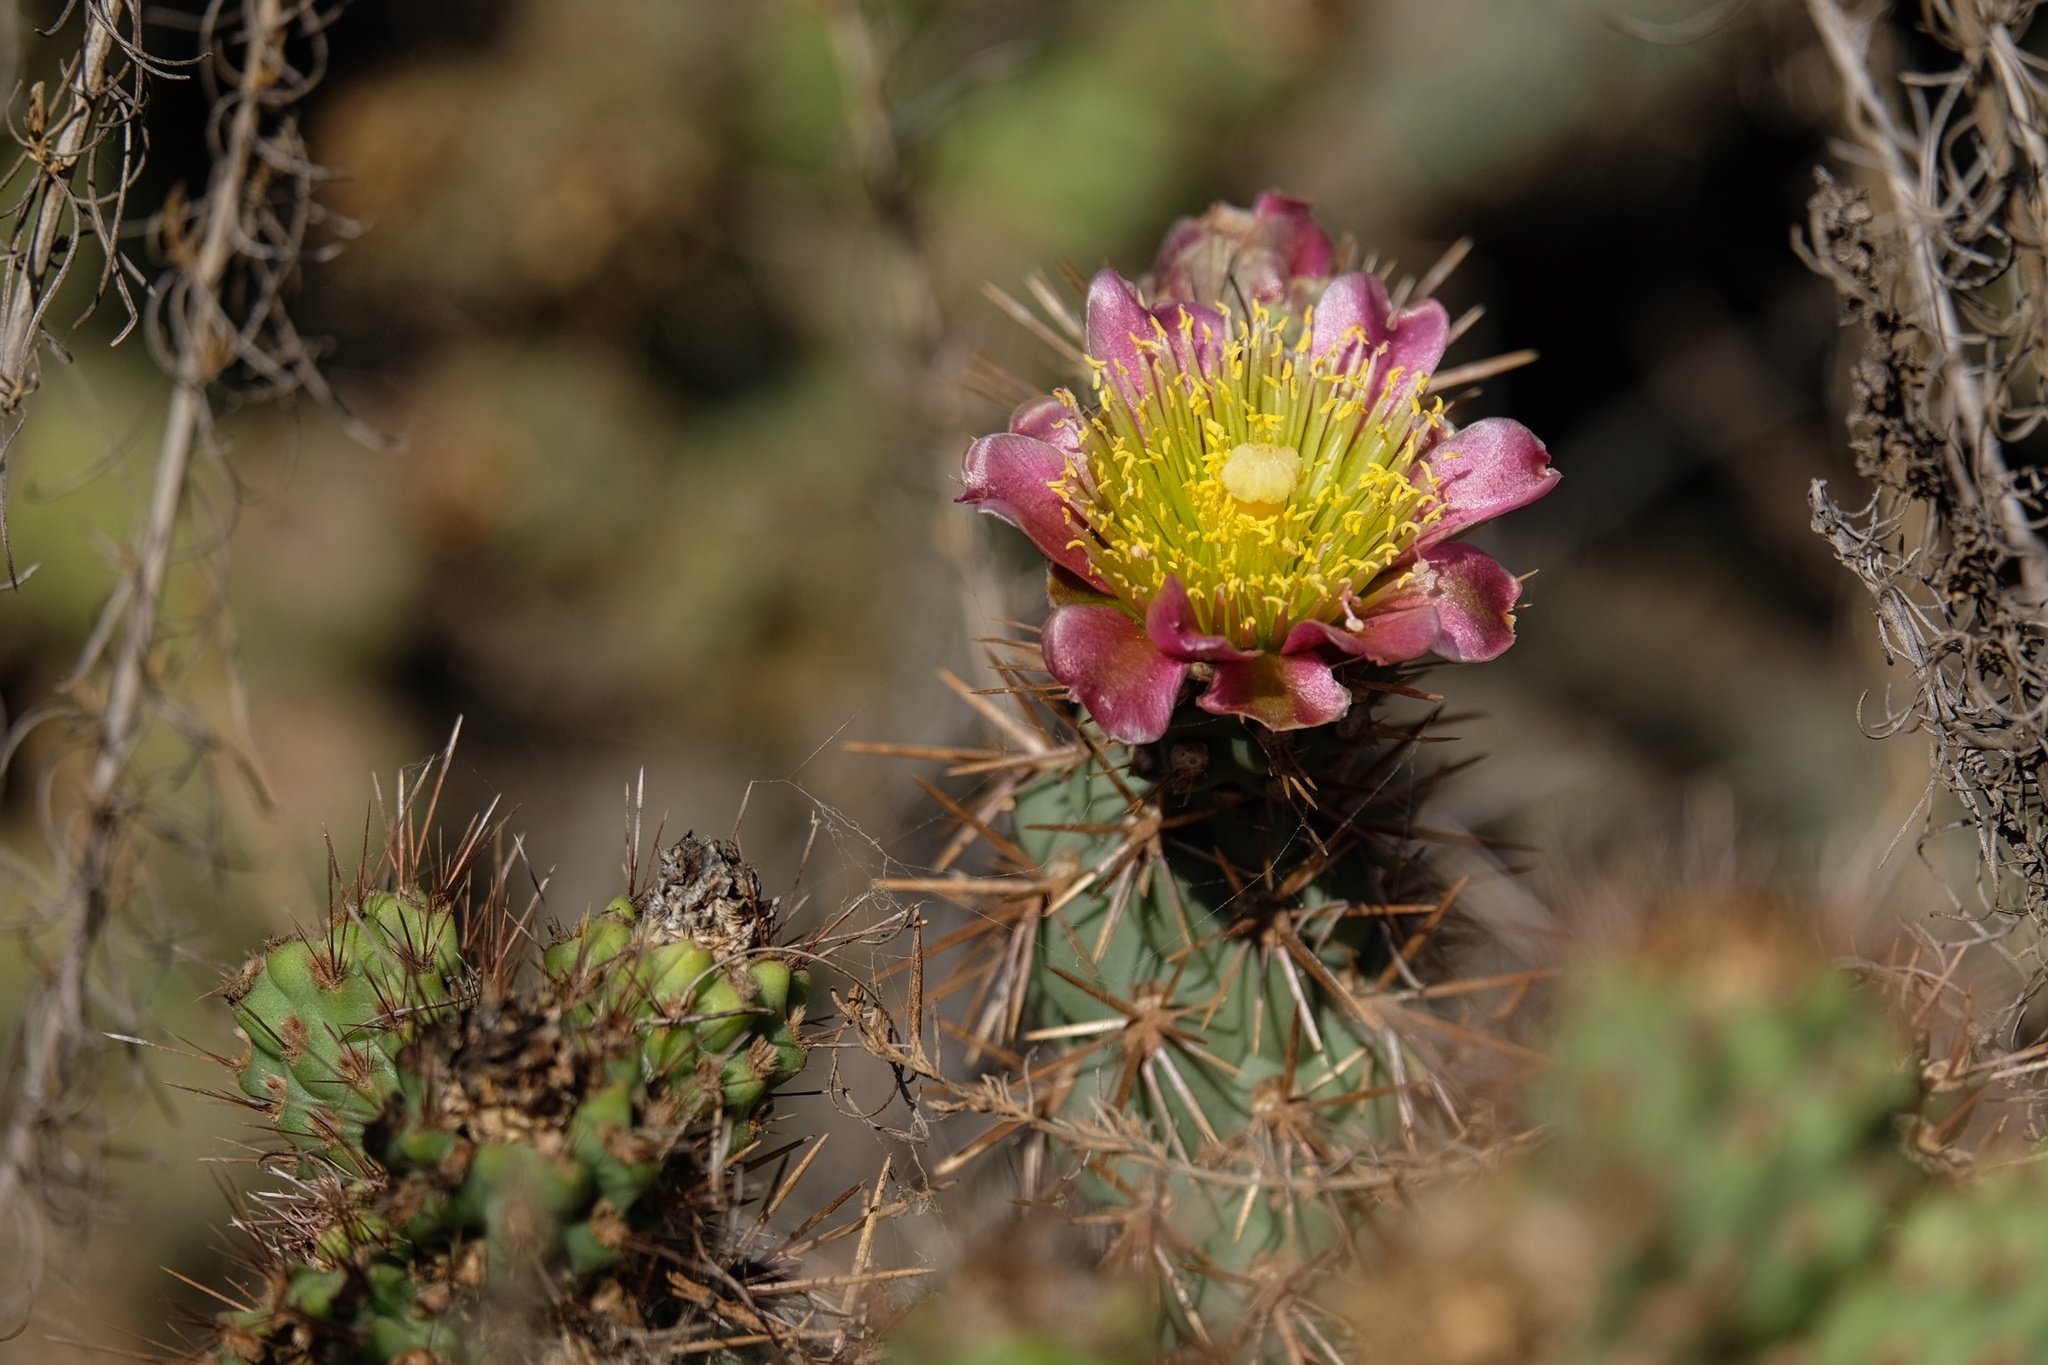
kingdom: Plantae
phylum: Tracheophyta
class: Magnoliopsida
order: Caryophyllales
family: Cactaceae
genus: Cylindropuntia
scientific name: Cylindropuntia prolifera
